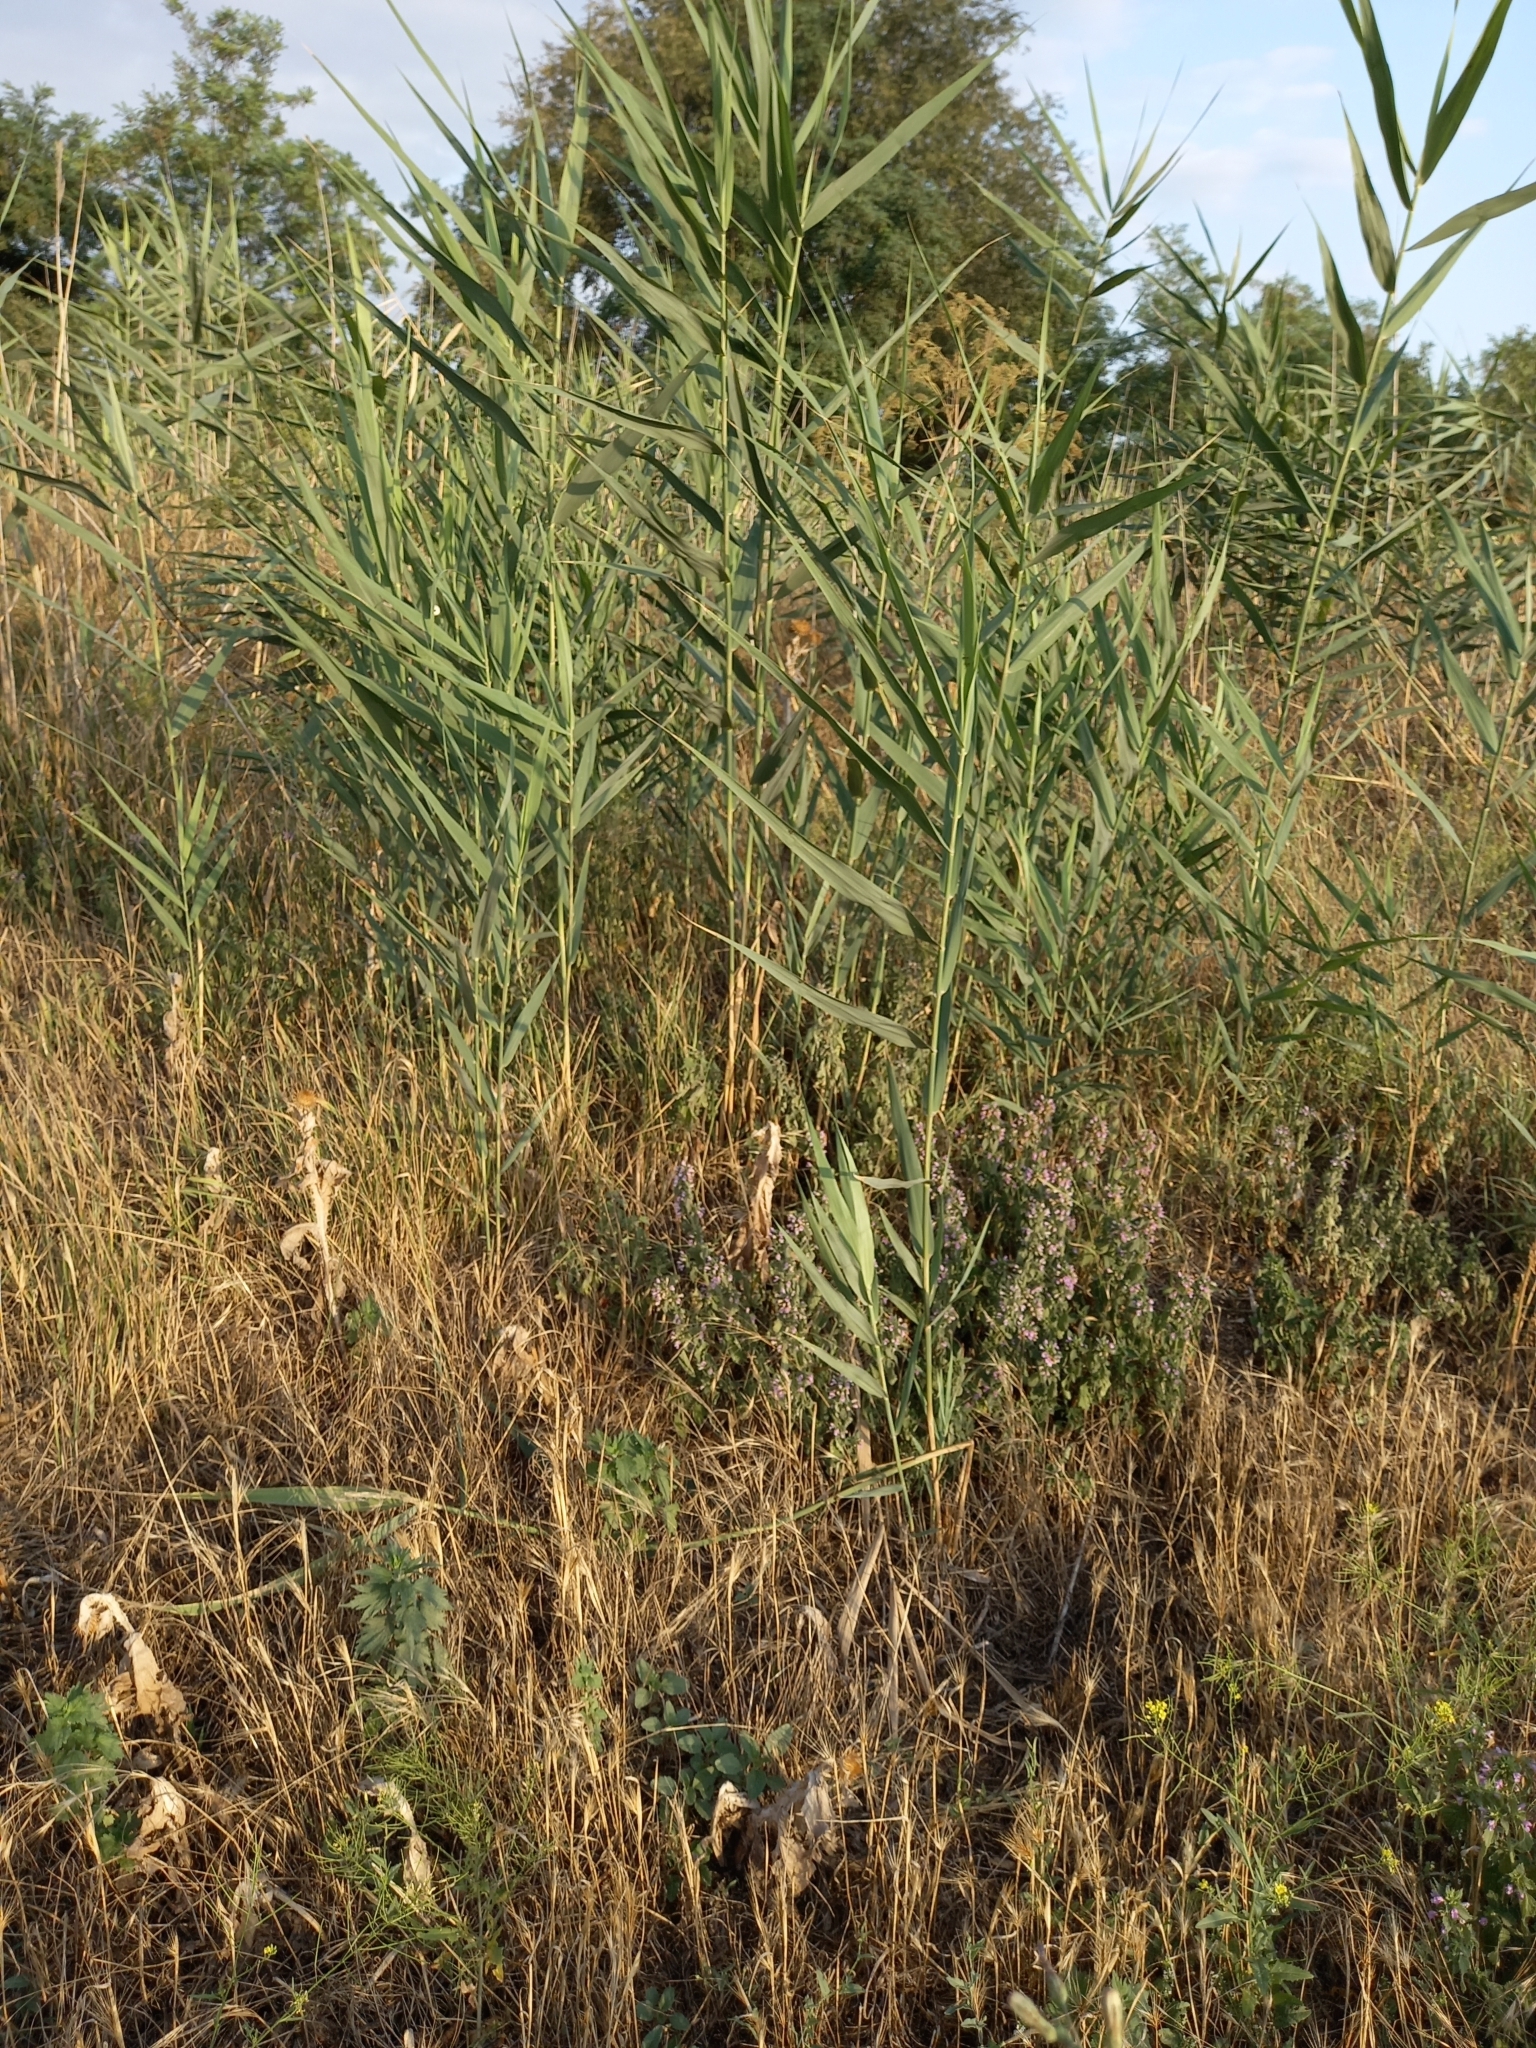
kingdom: Plantae
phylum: Tracheophyta
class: Liliopsida
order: Poales
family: Poaceae
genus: Phragmites
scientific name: Phragmites australis
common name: Common reed
